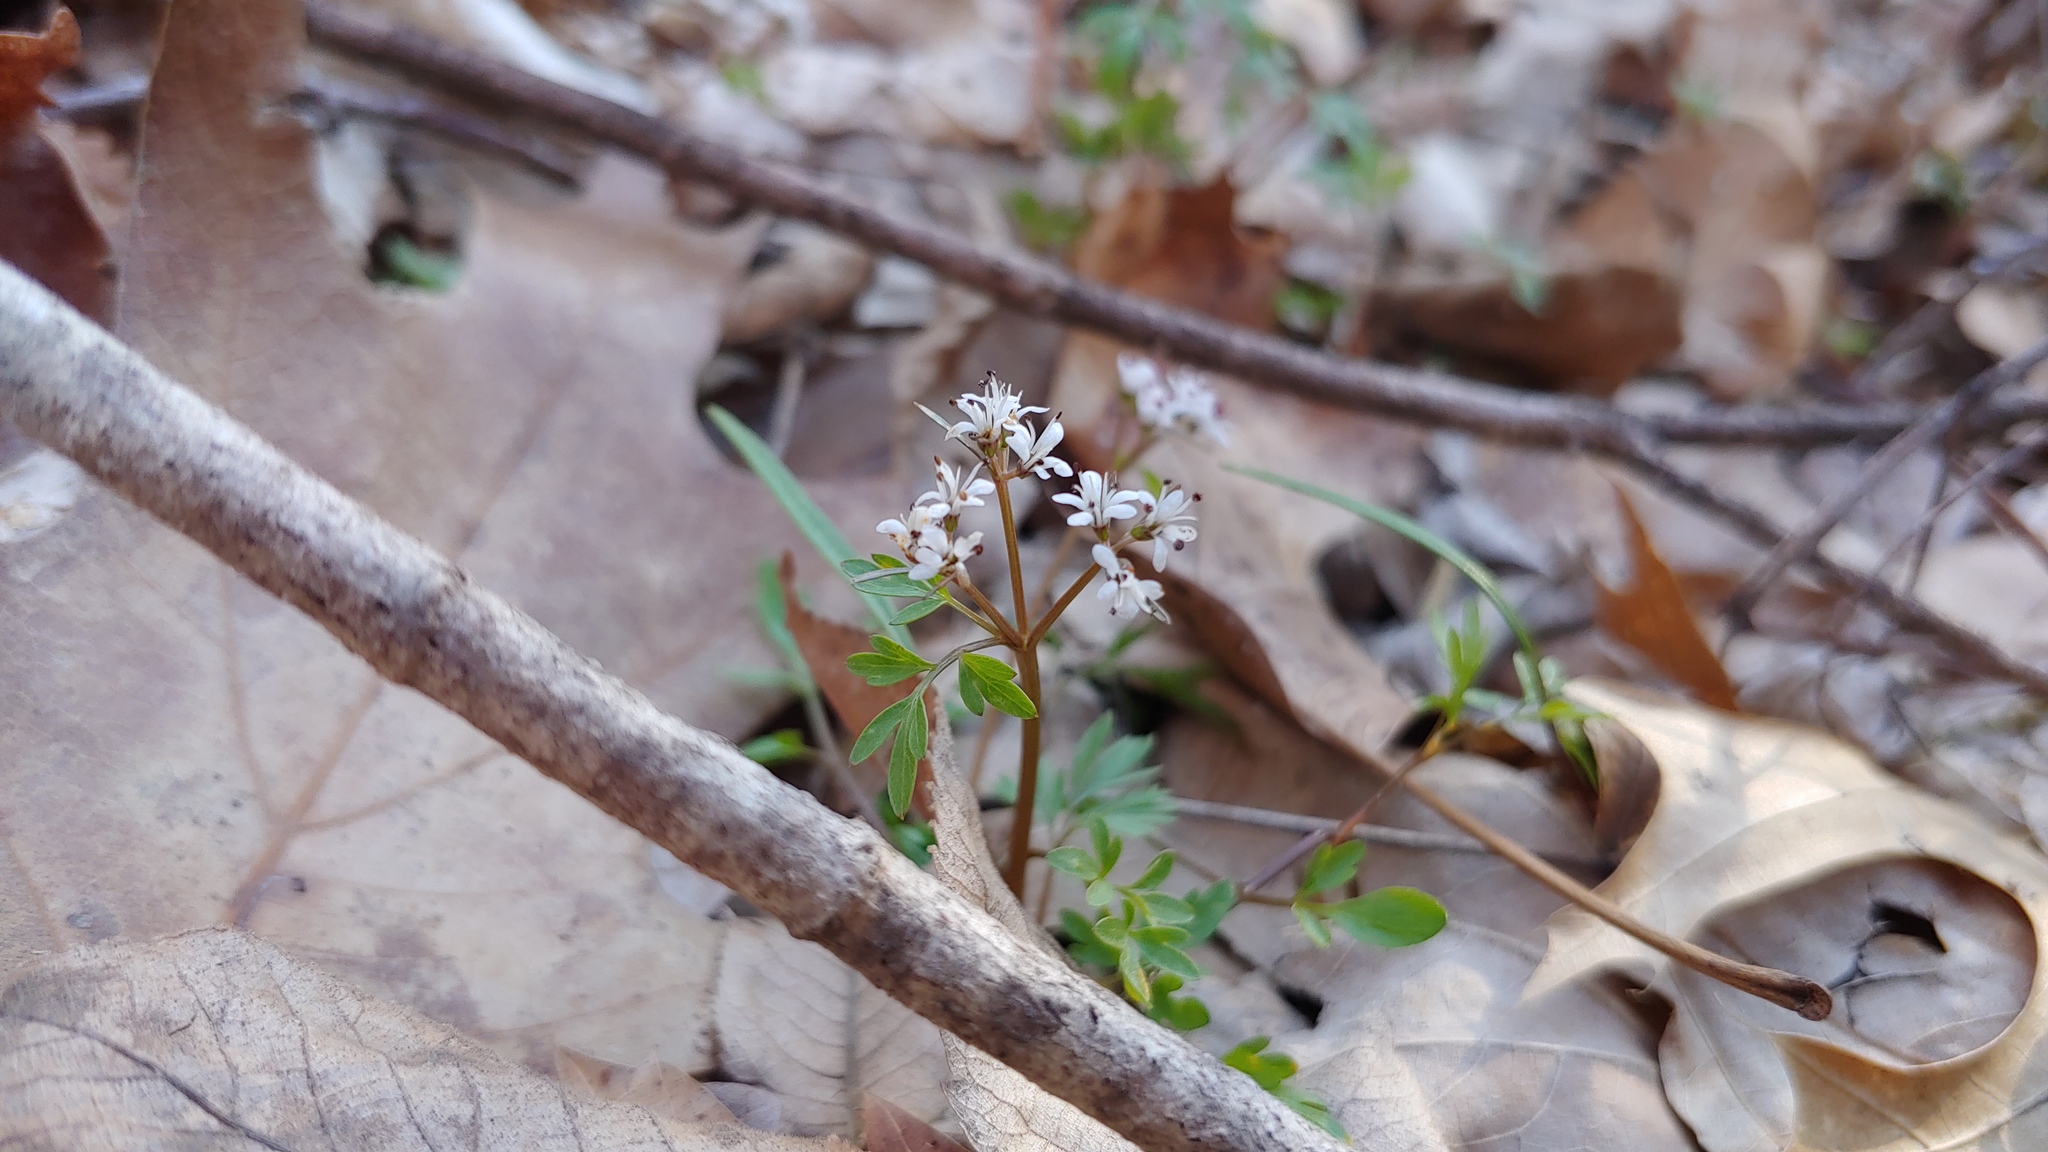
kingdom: Plantae
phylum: Tracheophyta
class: Magnoliopsida
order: Apiales
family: Apiaceae
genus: Erigenia
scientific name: Erigenia bulbosa
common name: Pepper-and-salt
